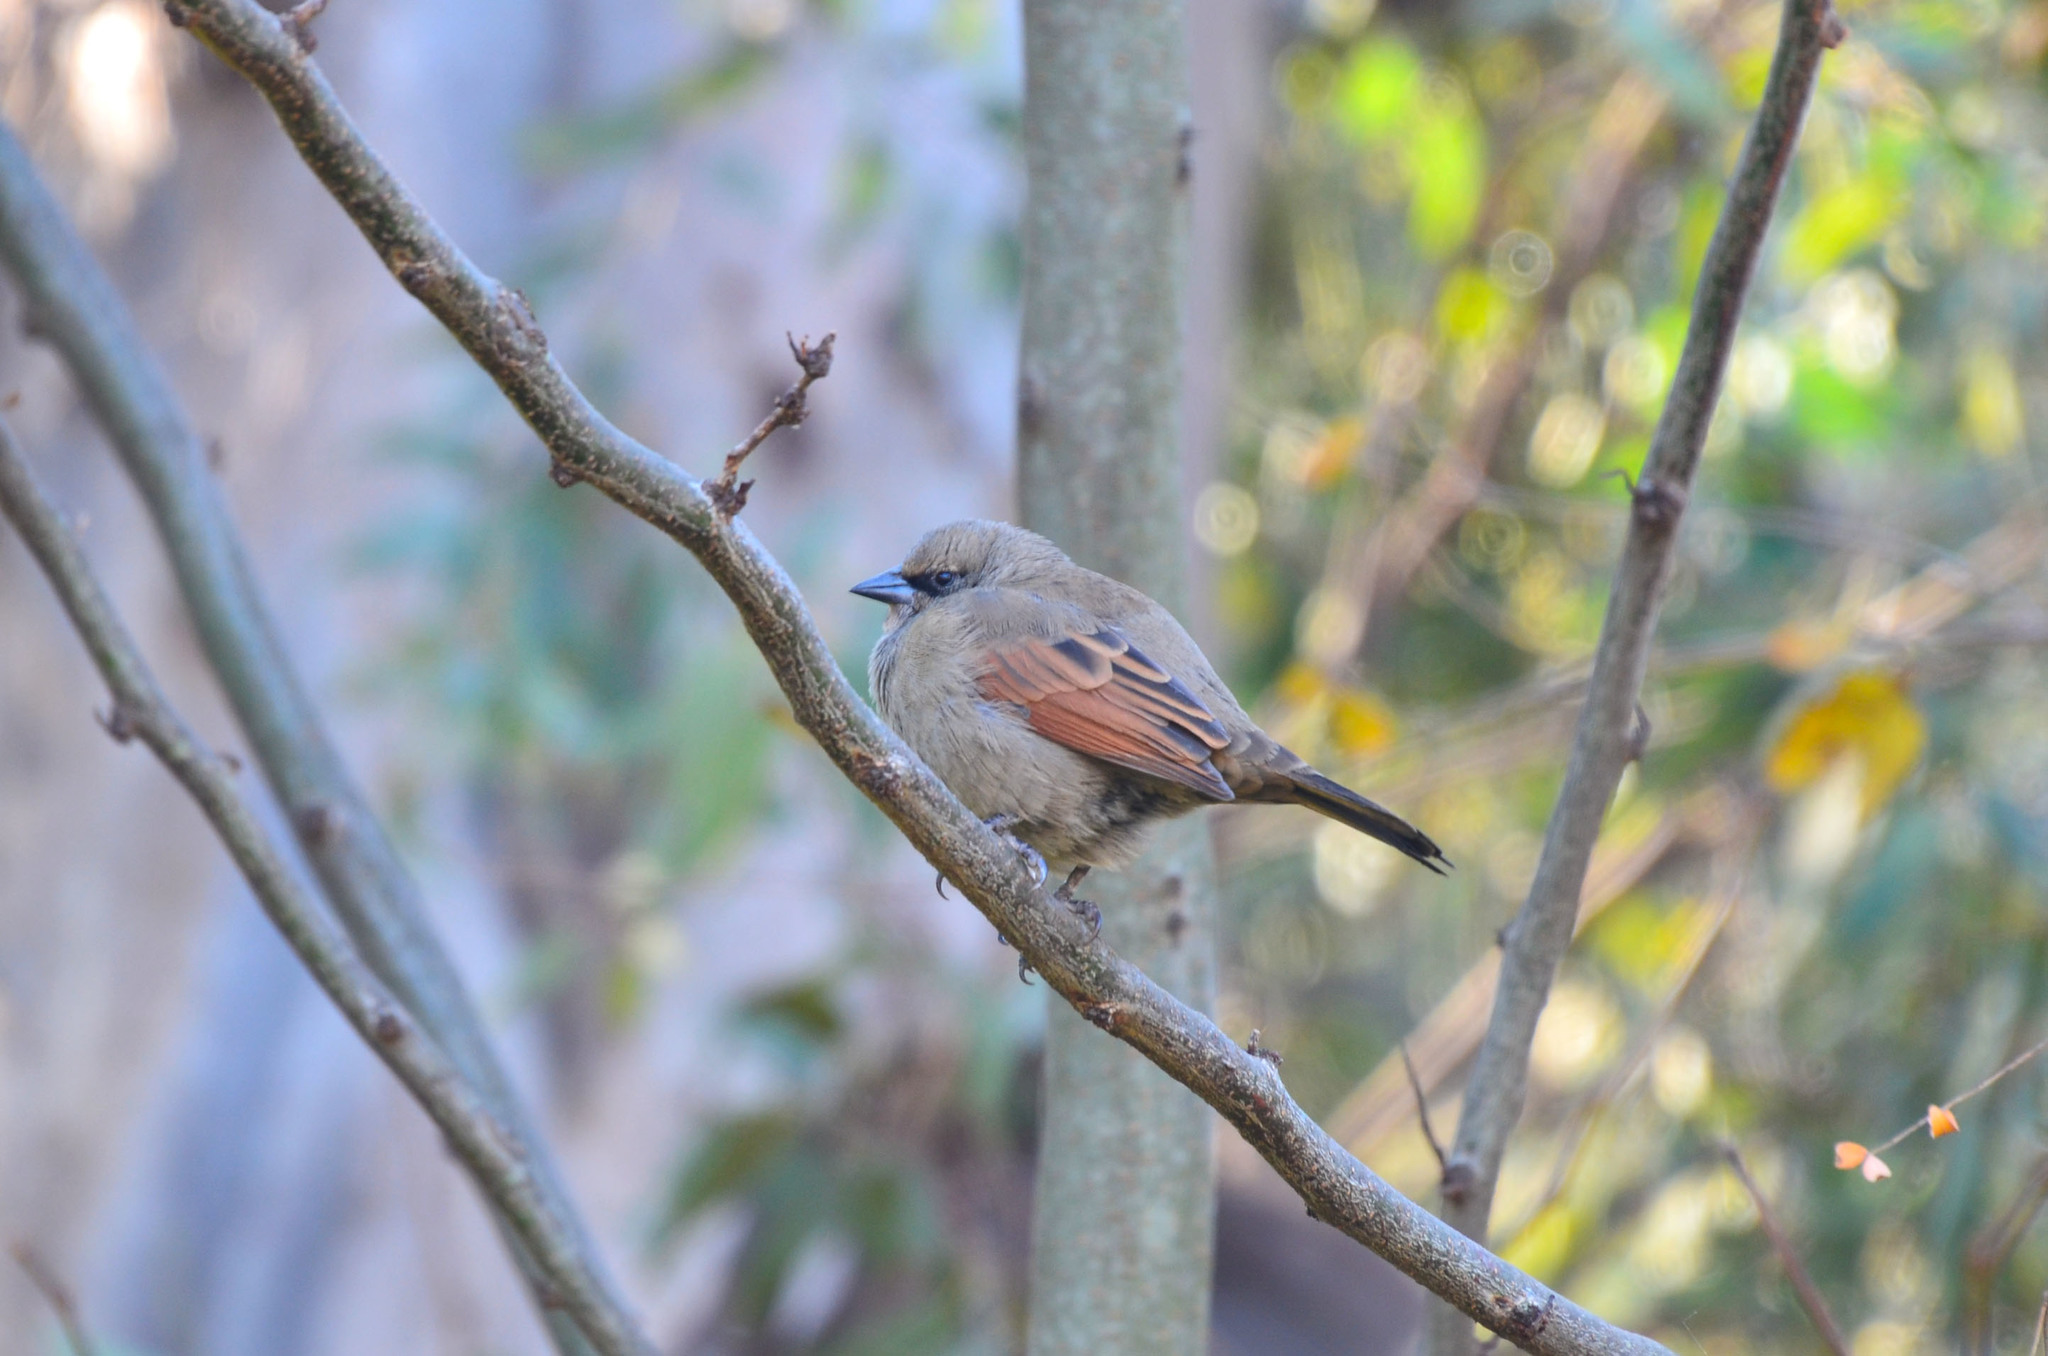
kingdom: Animalia
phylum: Chordata
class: Aves
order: Passeriformes
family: Icteridae
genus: Agelaioides
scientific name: Agelaioides badius
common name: Baywing
